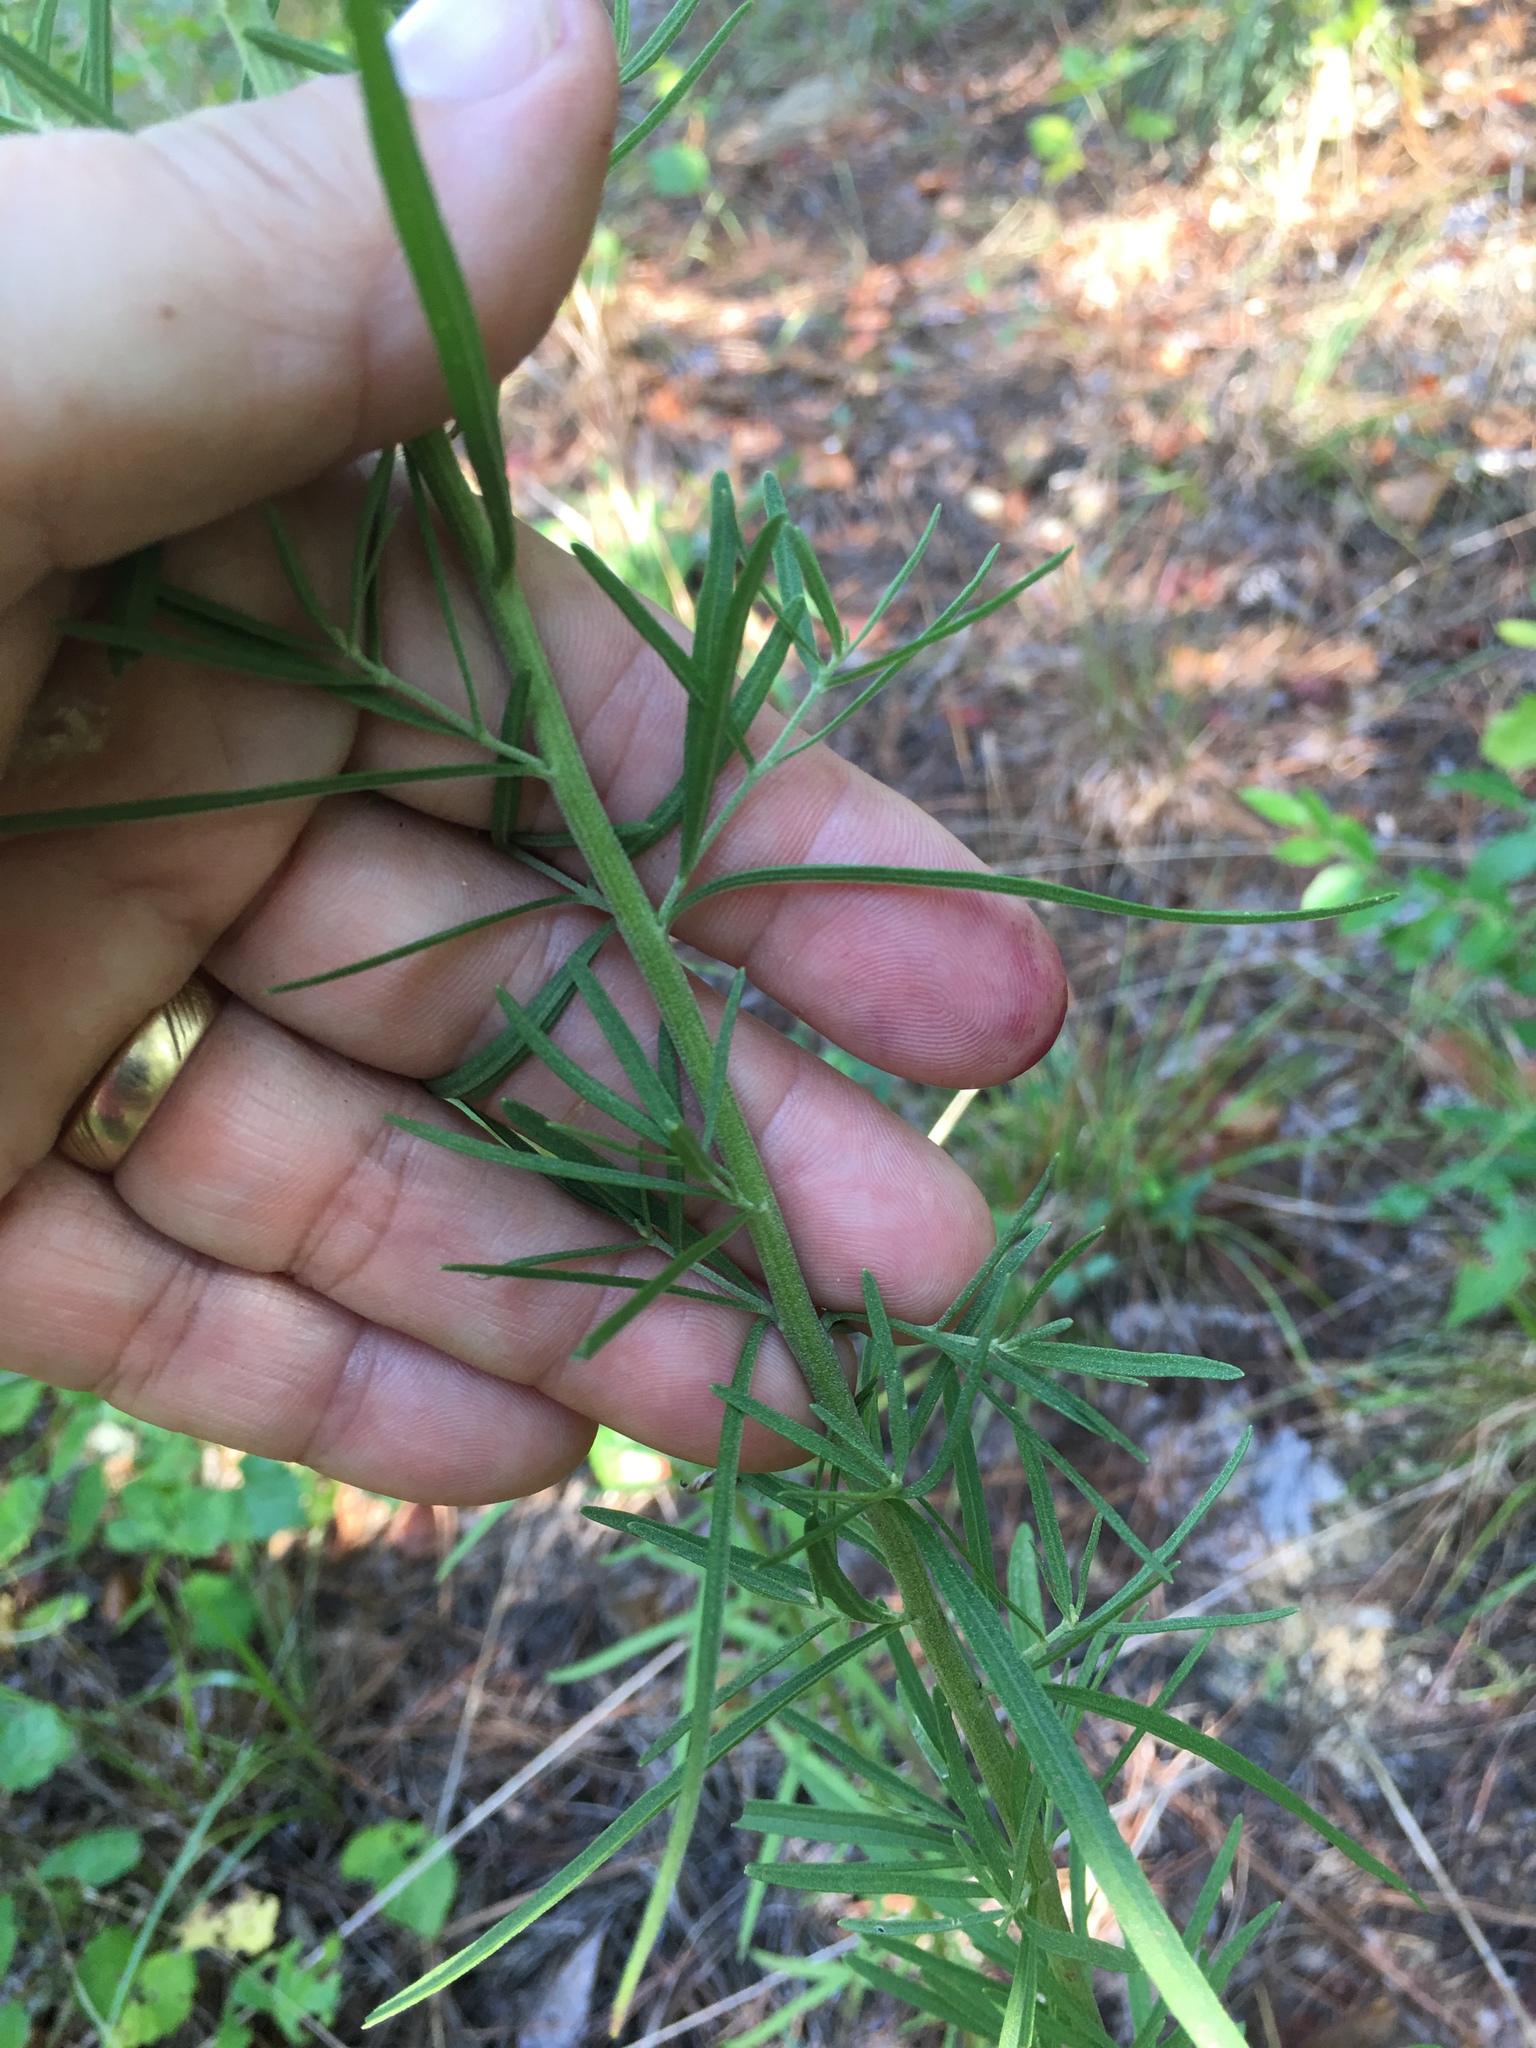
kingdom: Plantae
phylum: Tracheophyta
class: Magnoliopsida
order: Asterales
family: Asteraceae
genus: Eupatorium
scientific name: Eupatorium hyssopifolium
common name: Hyssop-leaf thoroughwort
